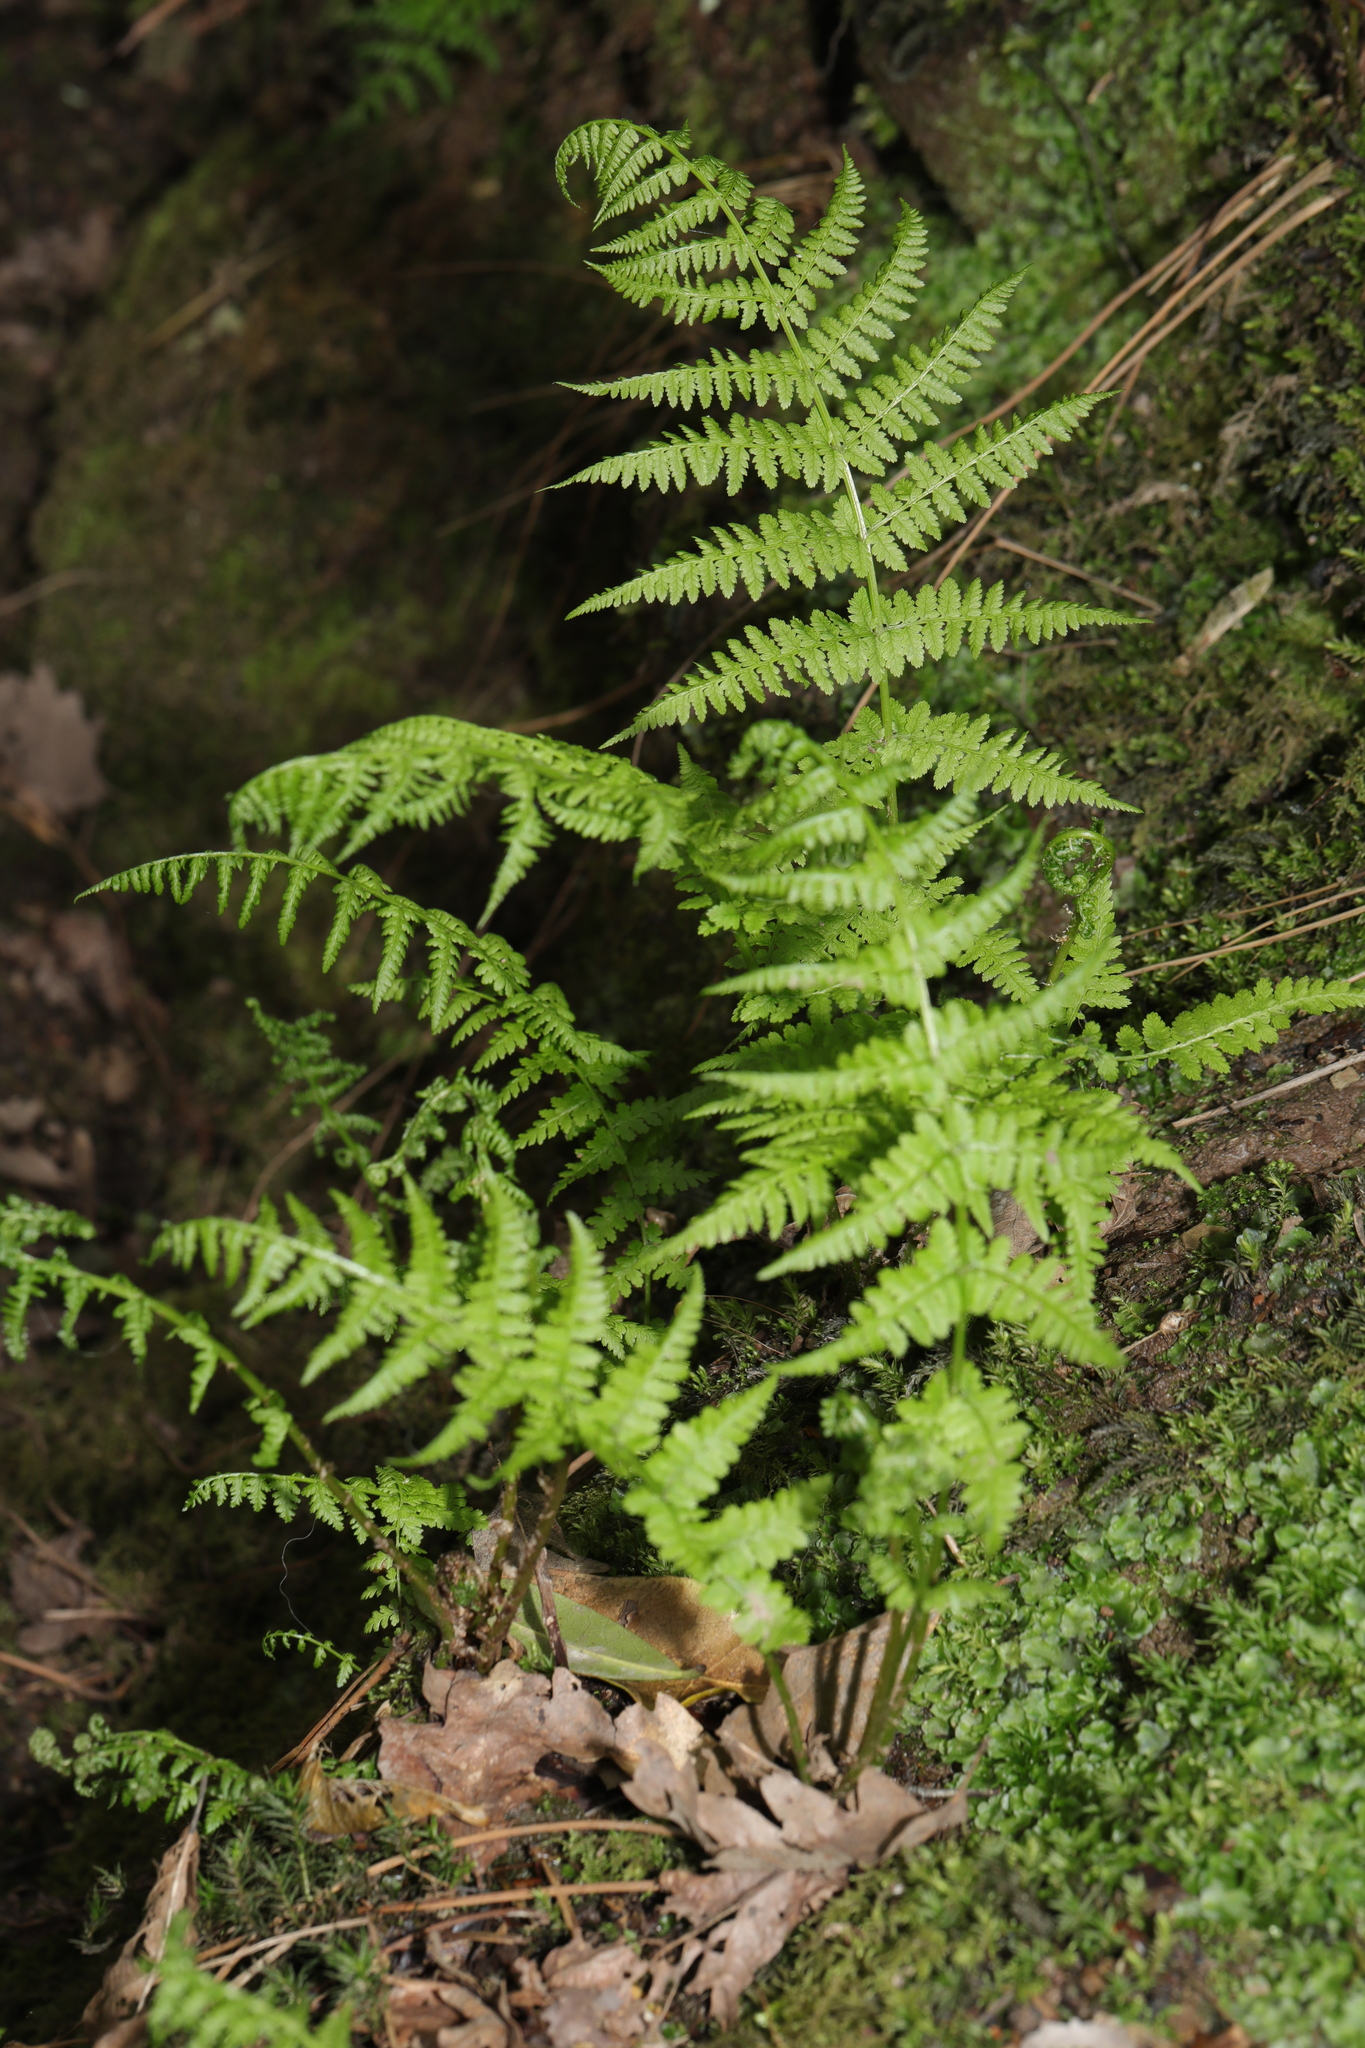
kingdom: Plantae
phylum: Tracheophyta
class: Polypodiopsida
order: Polypodiales
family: Athyriaceae
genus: Athyrium
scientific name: Athyrium filix-femina
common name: Lady fern
